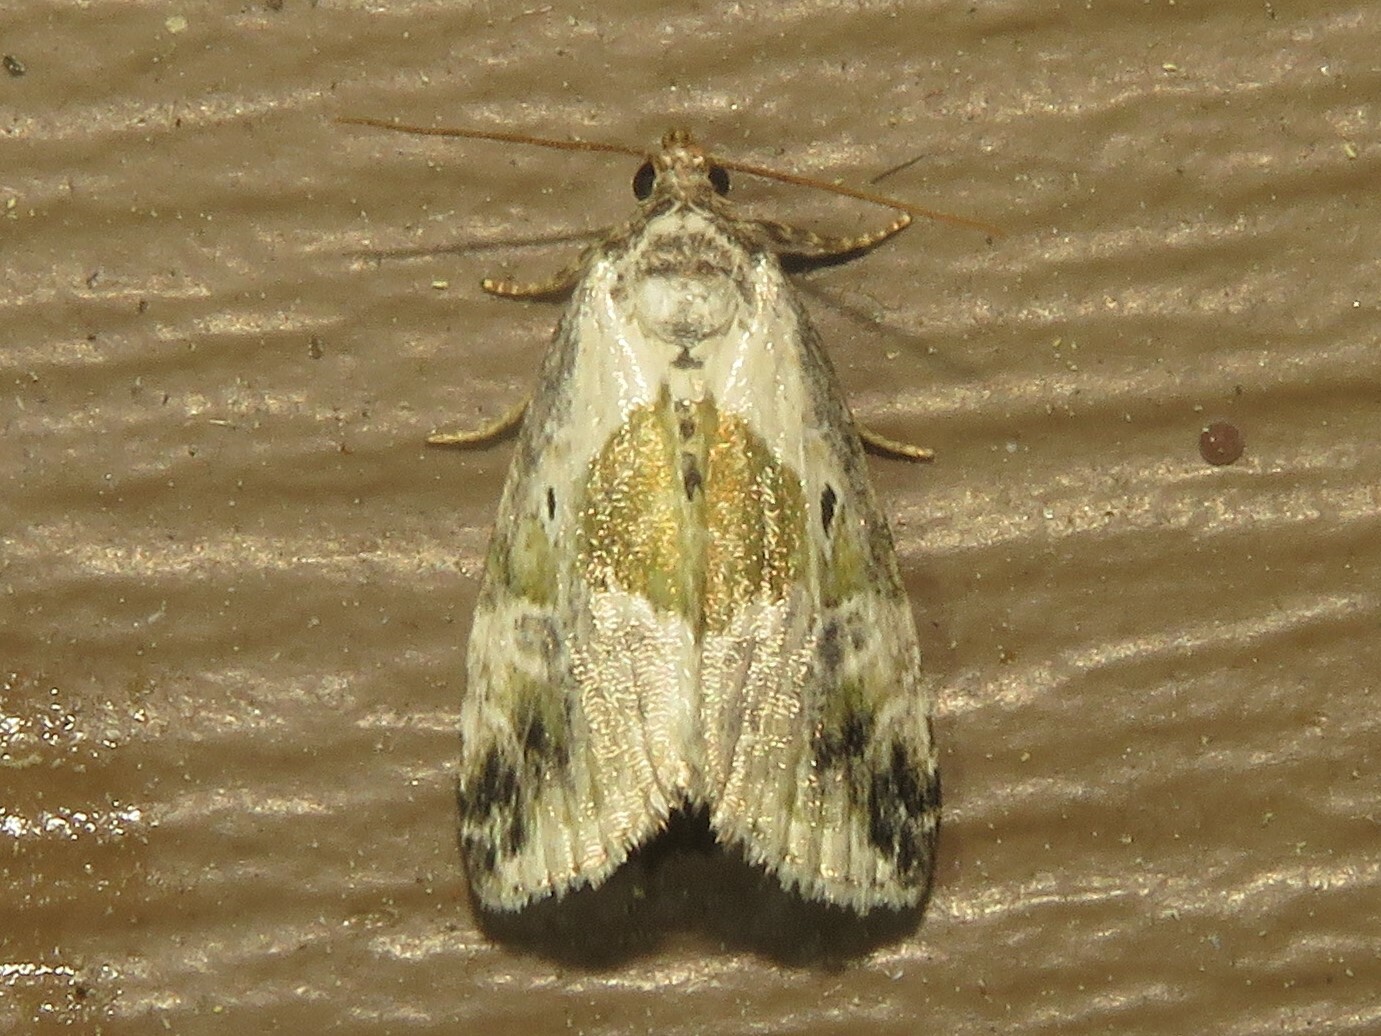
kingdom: Animalia
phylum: Arthropoda
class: Insecta
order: Lepidoptera
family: Noctuidae
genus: Maliattha
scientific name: Maliattha synochitis
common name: Black-dotted glyph
